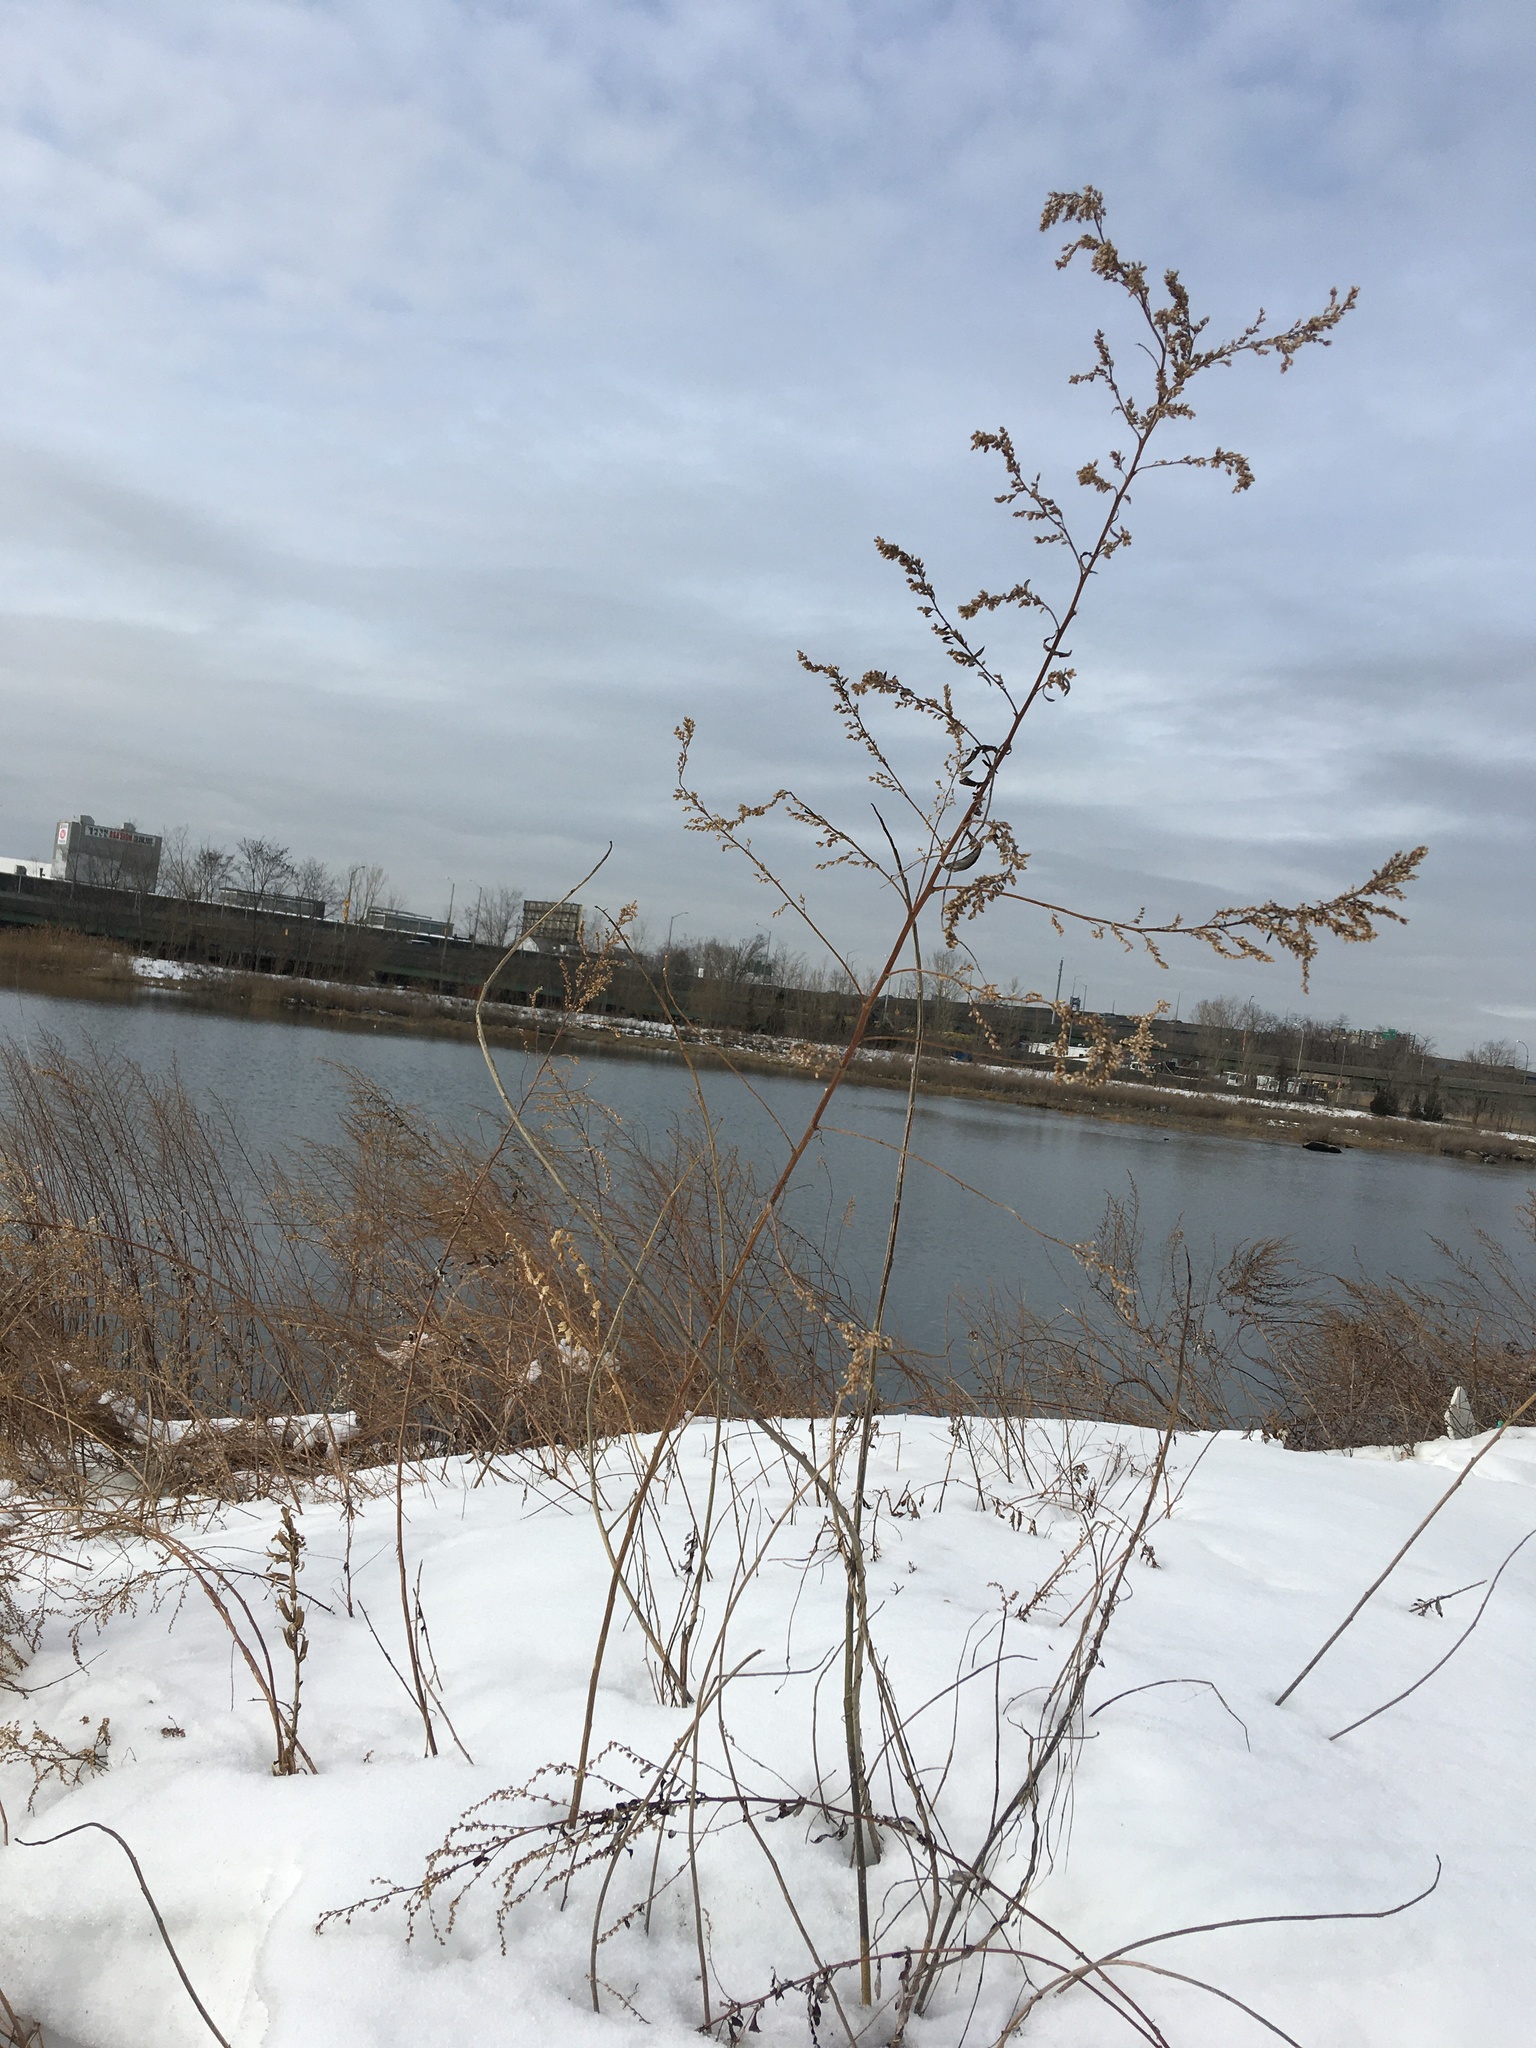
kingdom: Plantae
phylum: Tracheophyta
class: Magnoliopsida
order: Asterales
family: Asteraceae
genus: Artemisia
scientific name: Artemisia vulgaris
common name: Mugwort
